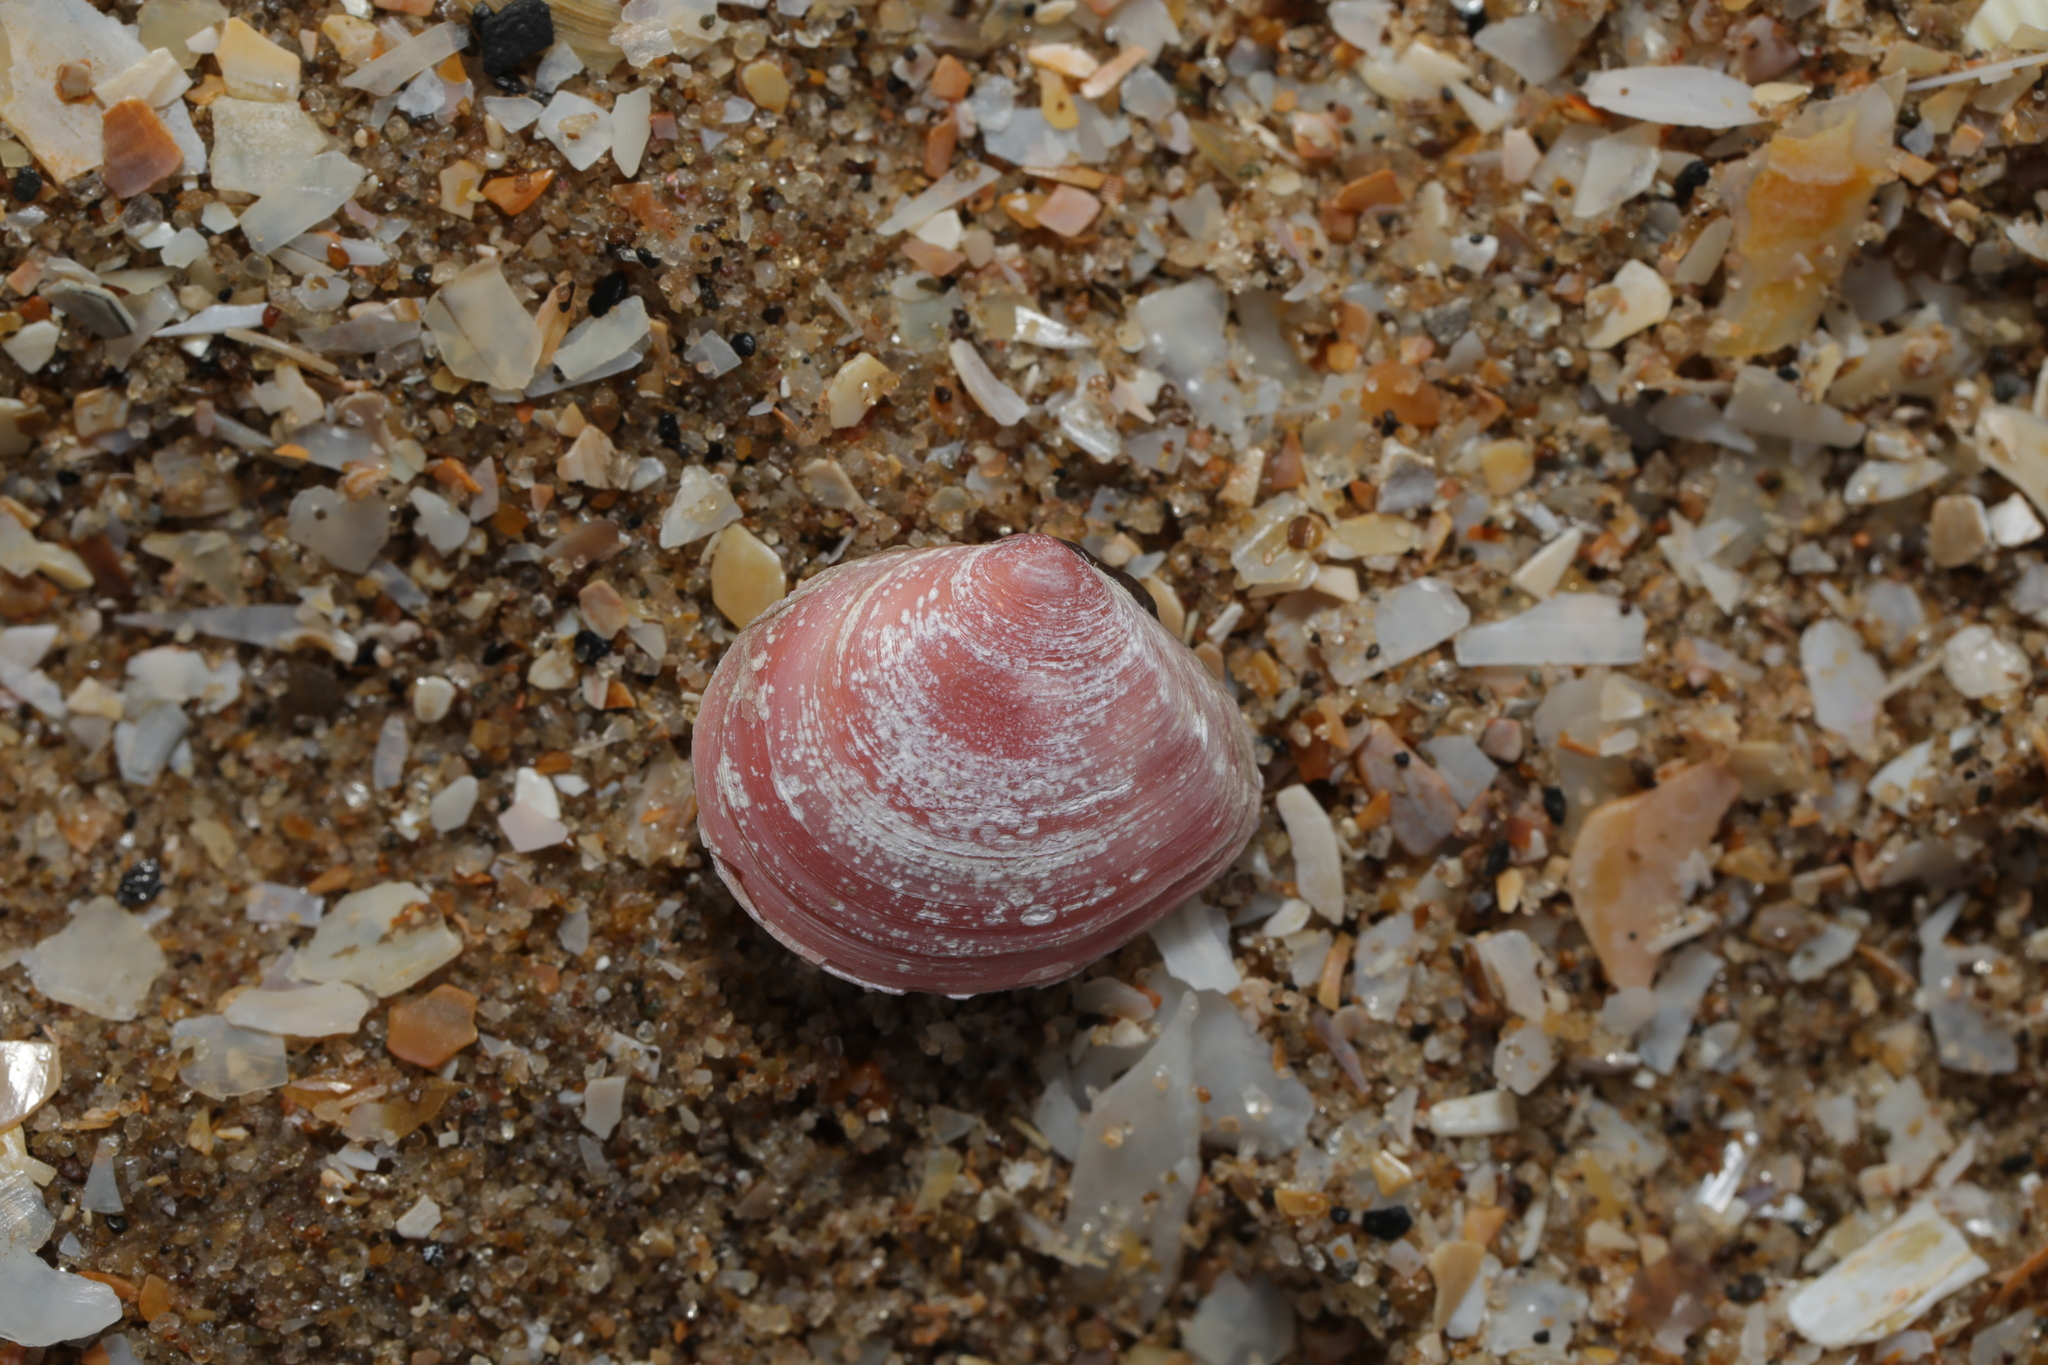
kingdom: Animalia
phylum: Mollusca
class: Bivalvia
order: Cardiida
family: Tellinidae
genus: Macoma
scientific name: Macoma balthica
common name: Baltic tellin
